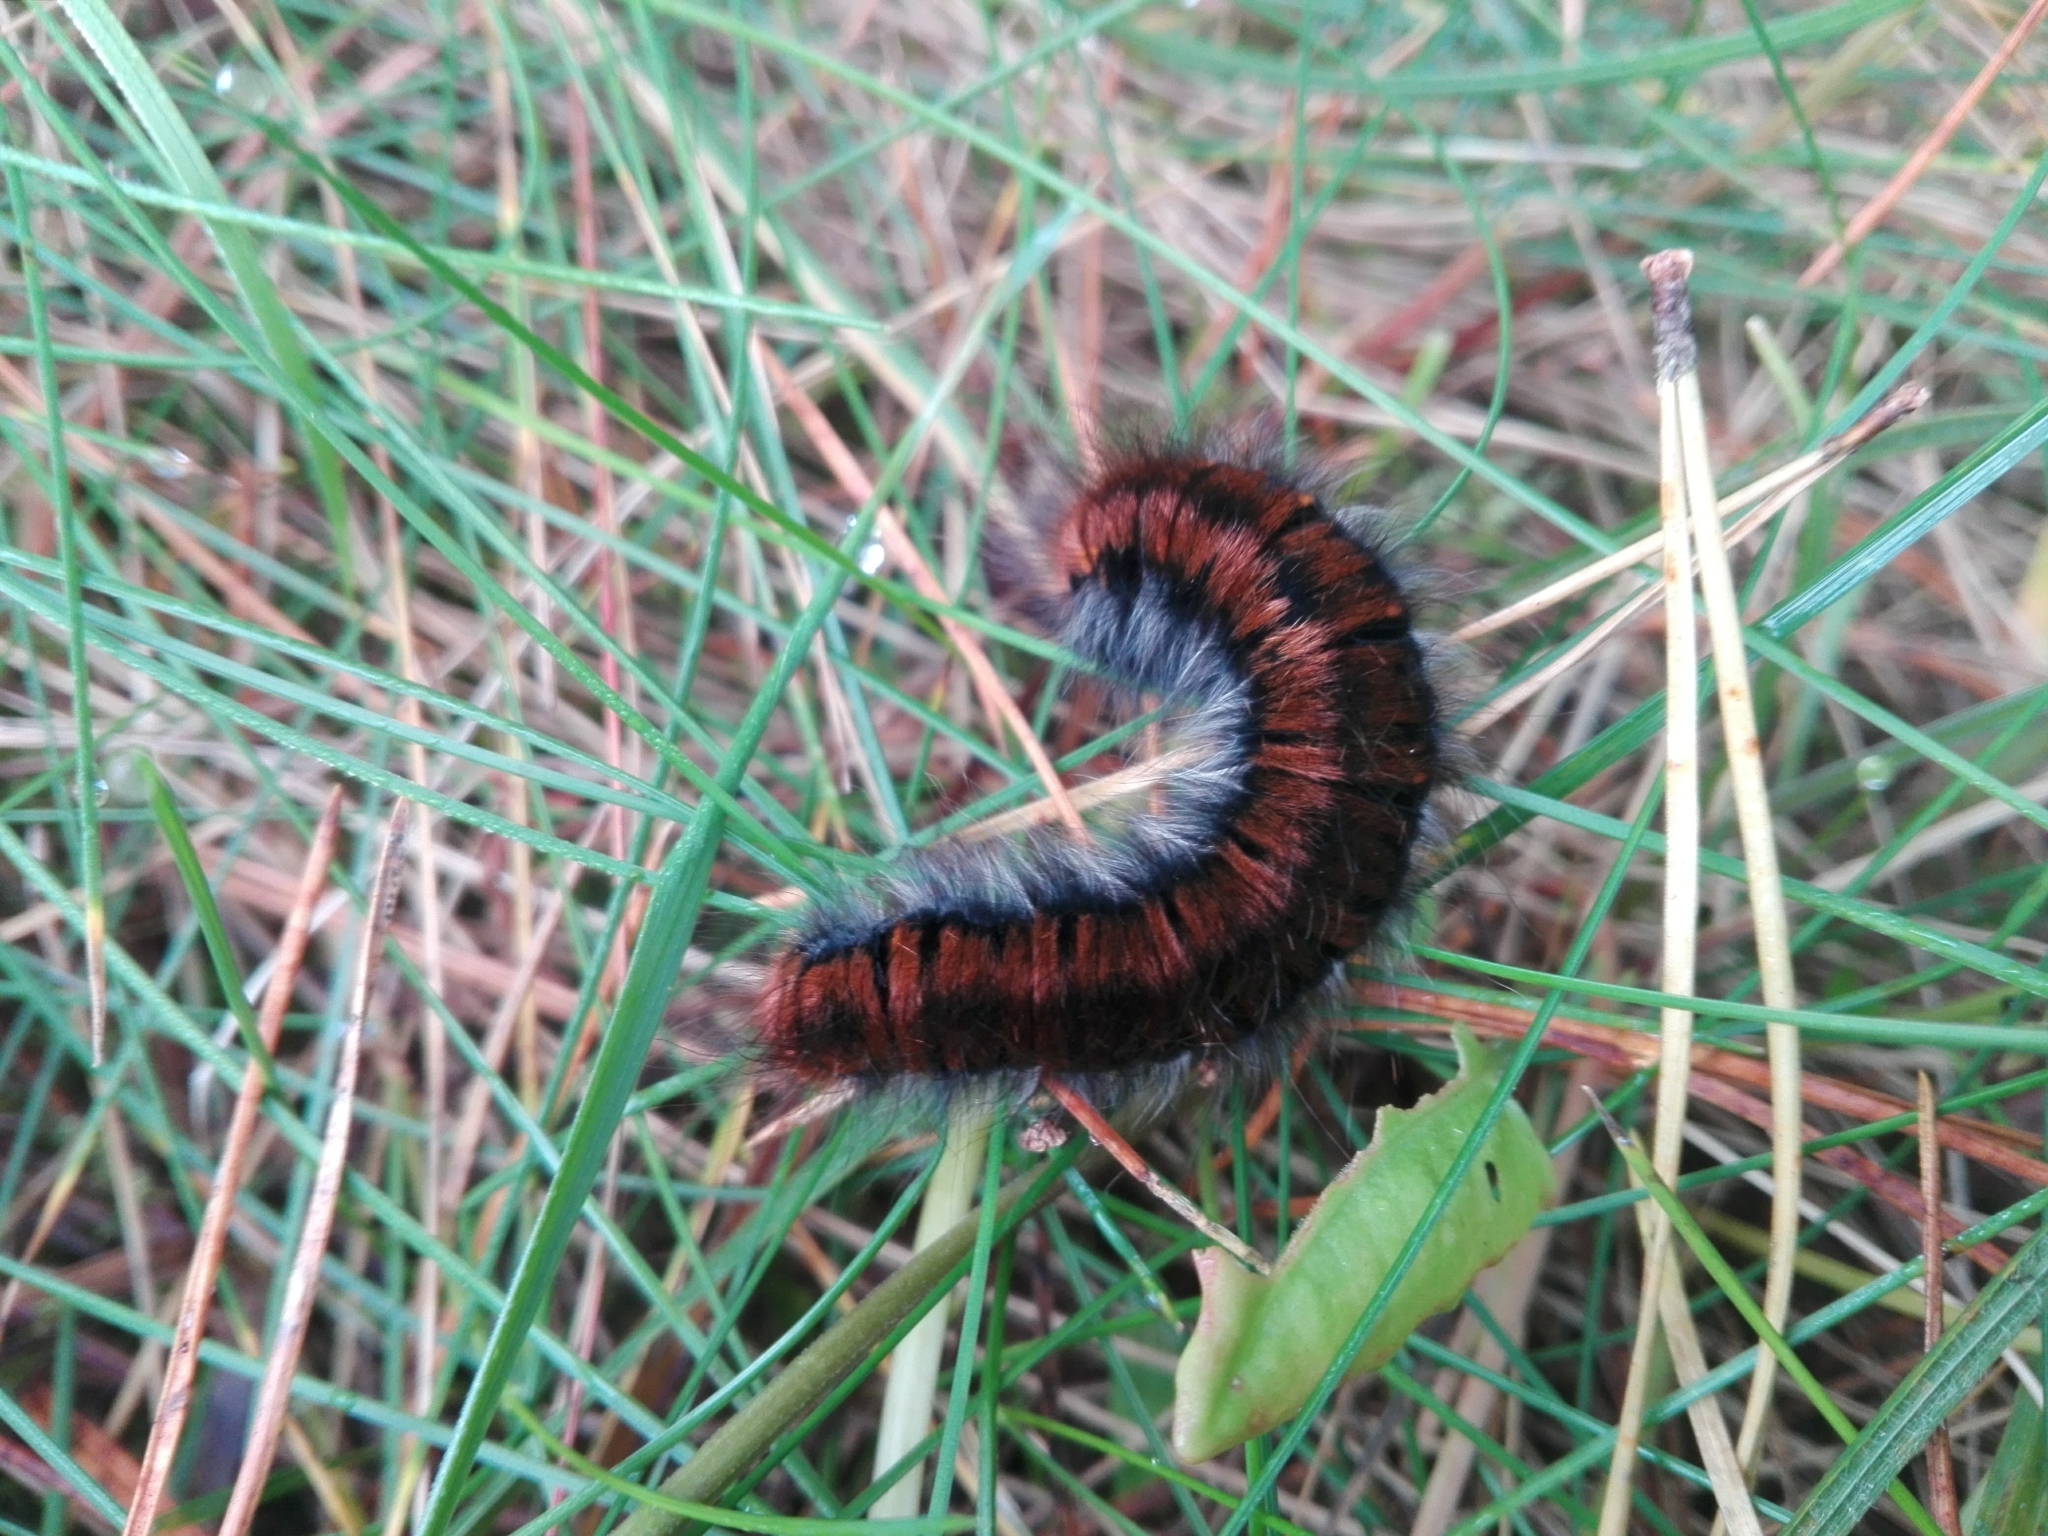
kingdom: Animalia
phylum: Arthropoda
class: Insecta
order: Lepidoptera
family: Lasiocampidae
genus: Macrothylacia
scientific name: Macrothylacia rubi
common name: Fox moth
